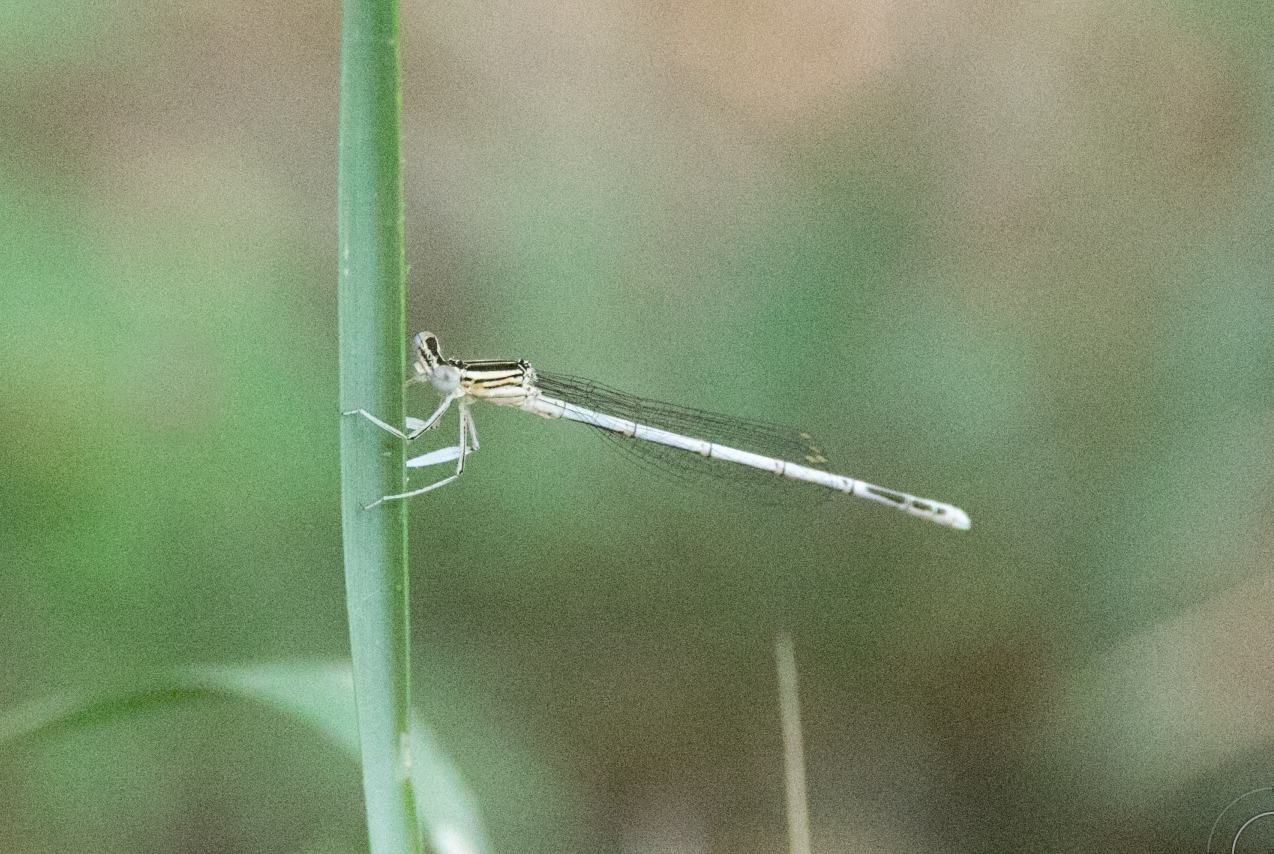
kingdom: Animalia
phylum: Arthropoda
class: Insecta
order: Odonata
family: Platycnemididae
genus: Platycnemis
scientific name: Platycnemis pennipes
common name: White-legged damselfly
